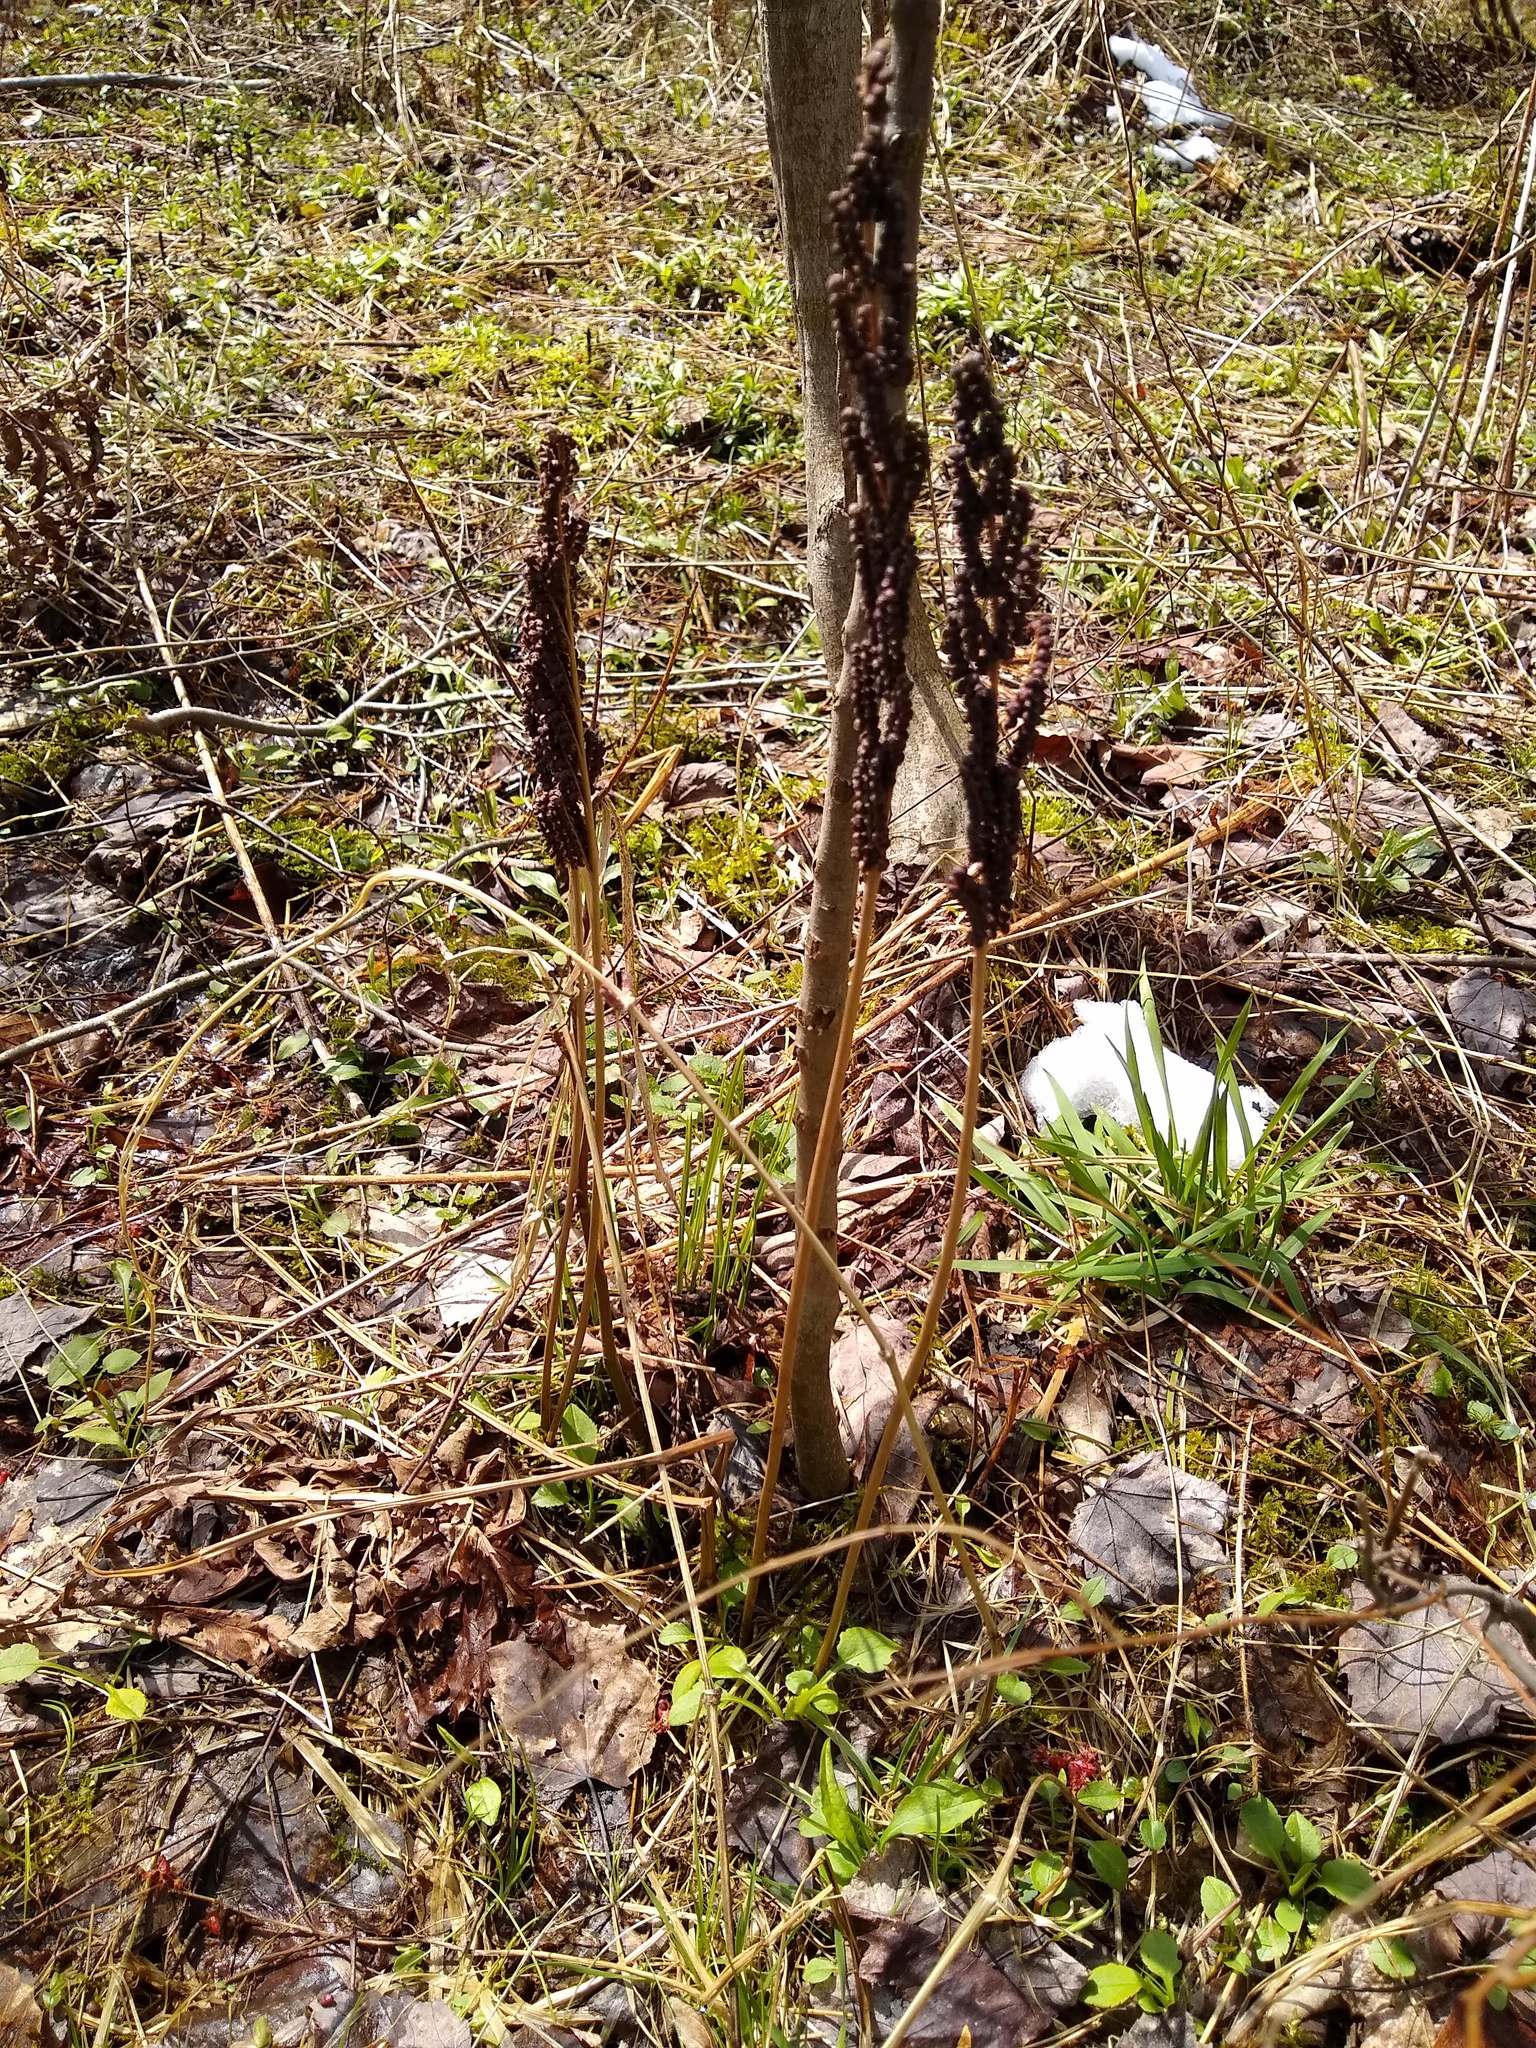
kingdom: Plantae
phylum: Tracheophyta
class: Polypodiopsida
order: Polypodiales
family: Onocleaceae
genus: Onoclea
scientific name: Onoclea sensibilis
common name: Sensitive fern
